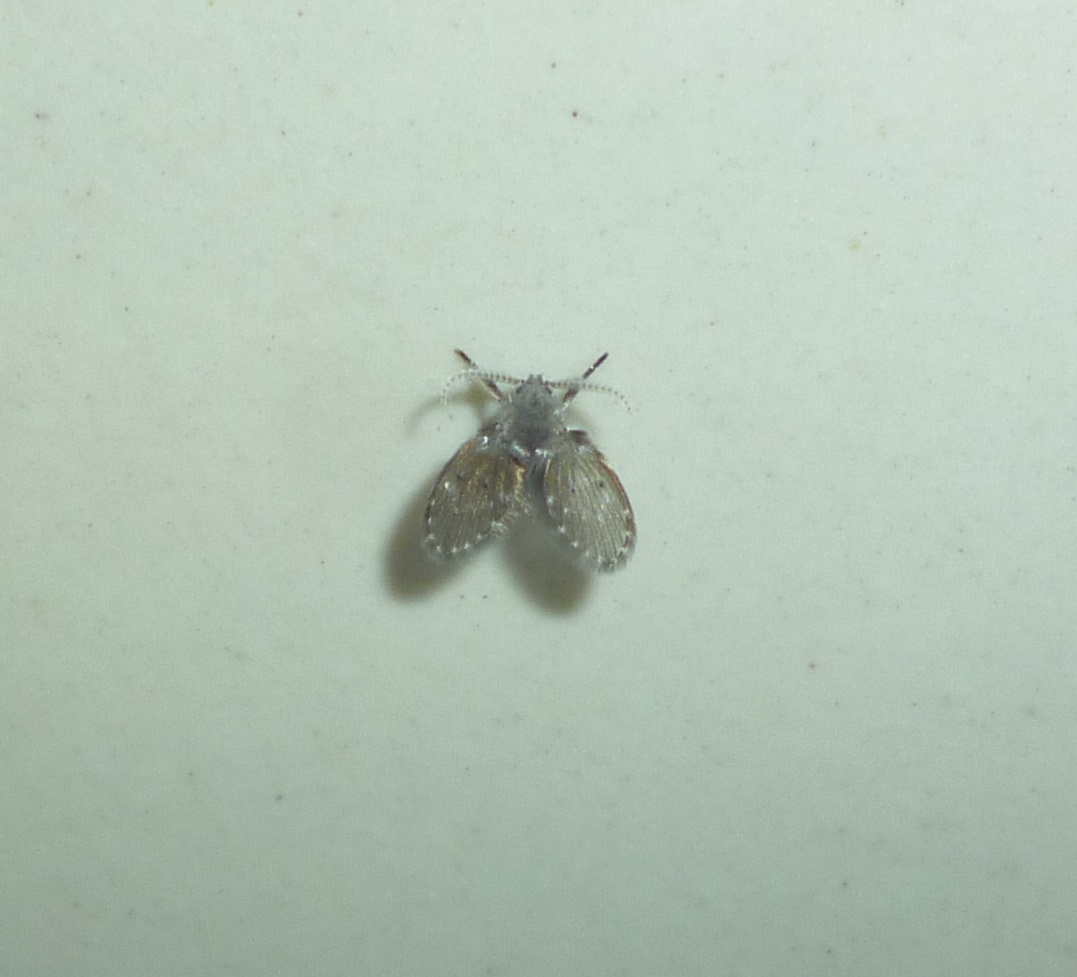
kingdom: Animalia
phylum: Arthropoda
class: Insecta
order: Diptera
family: Psychodidae
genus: Clogmia
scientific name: Clogmia albipunctatus
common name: White-spotted moth fly
